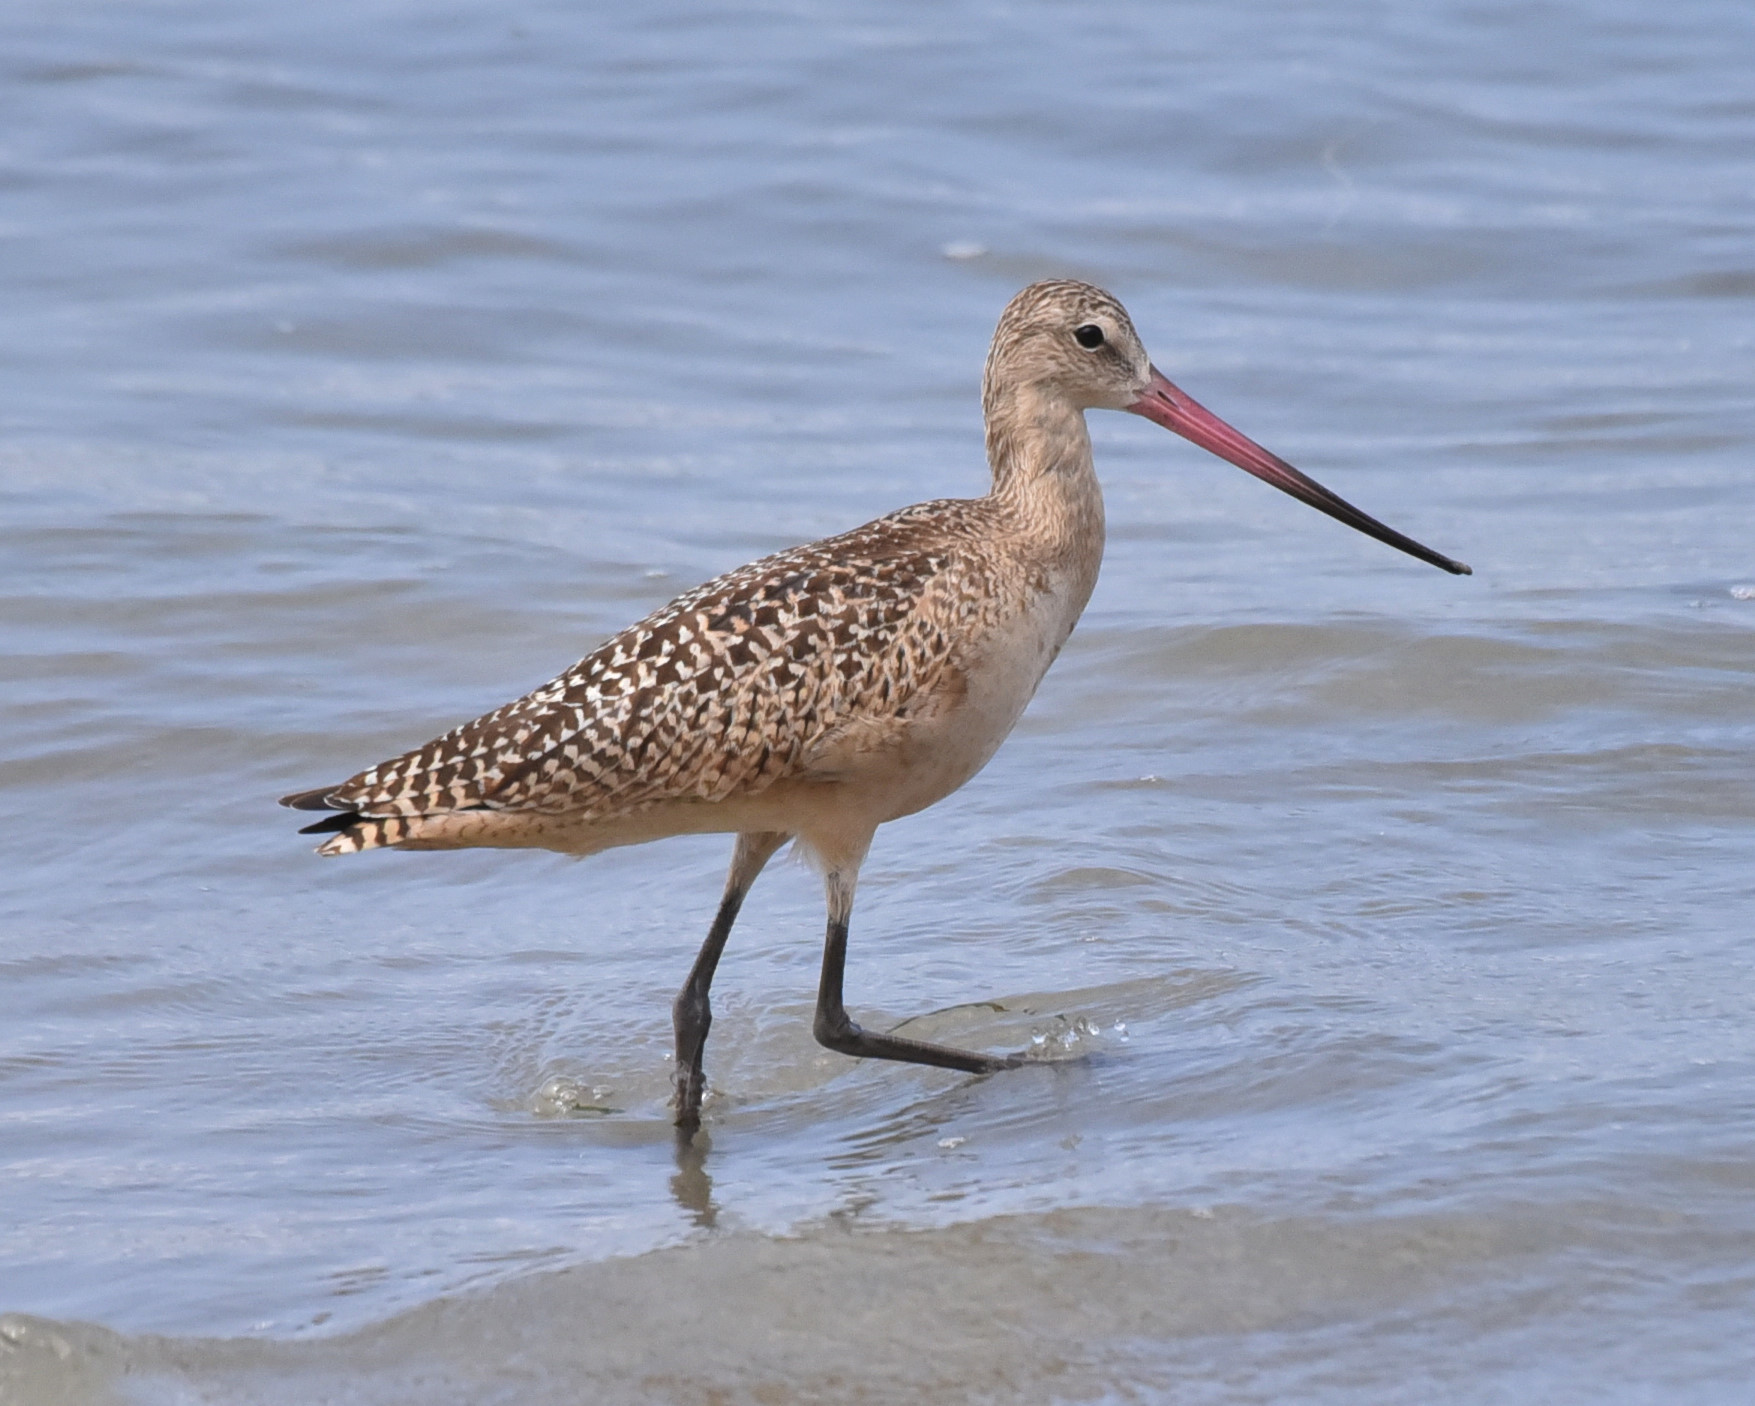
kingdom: Animalia
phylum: Chordata
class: Aves
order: Charadriiformes
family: Scolopacidae
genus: Limosa
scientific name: Limosa fedoa
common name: Marbled godwit
